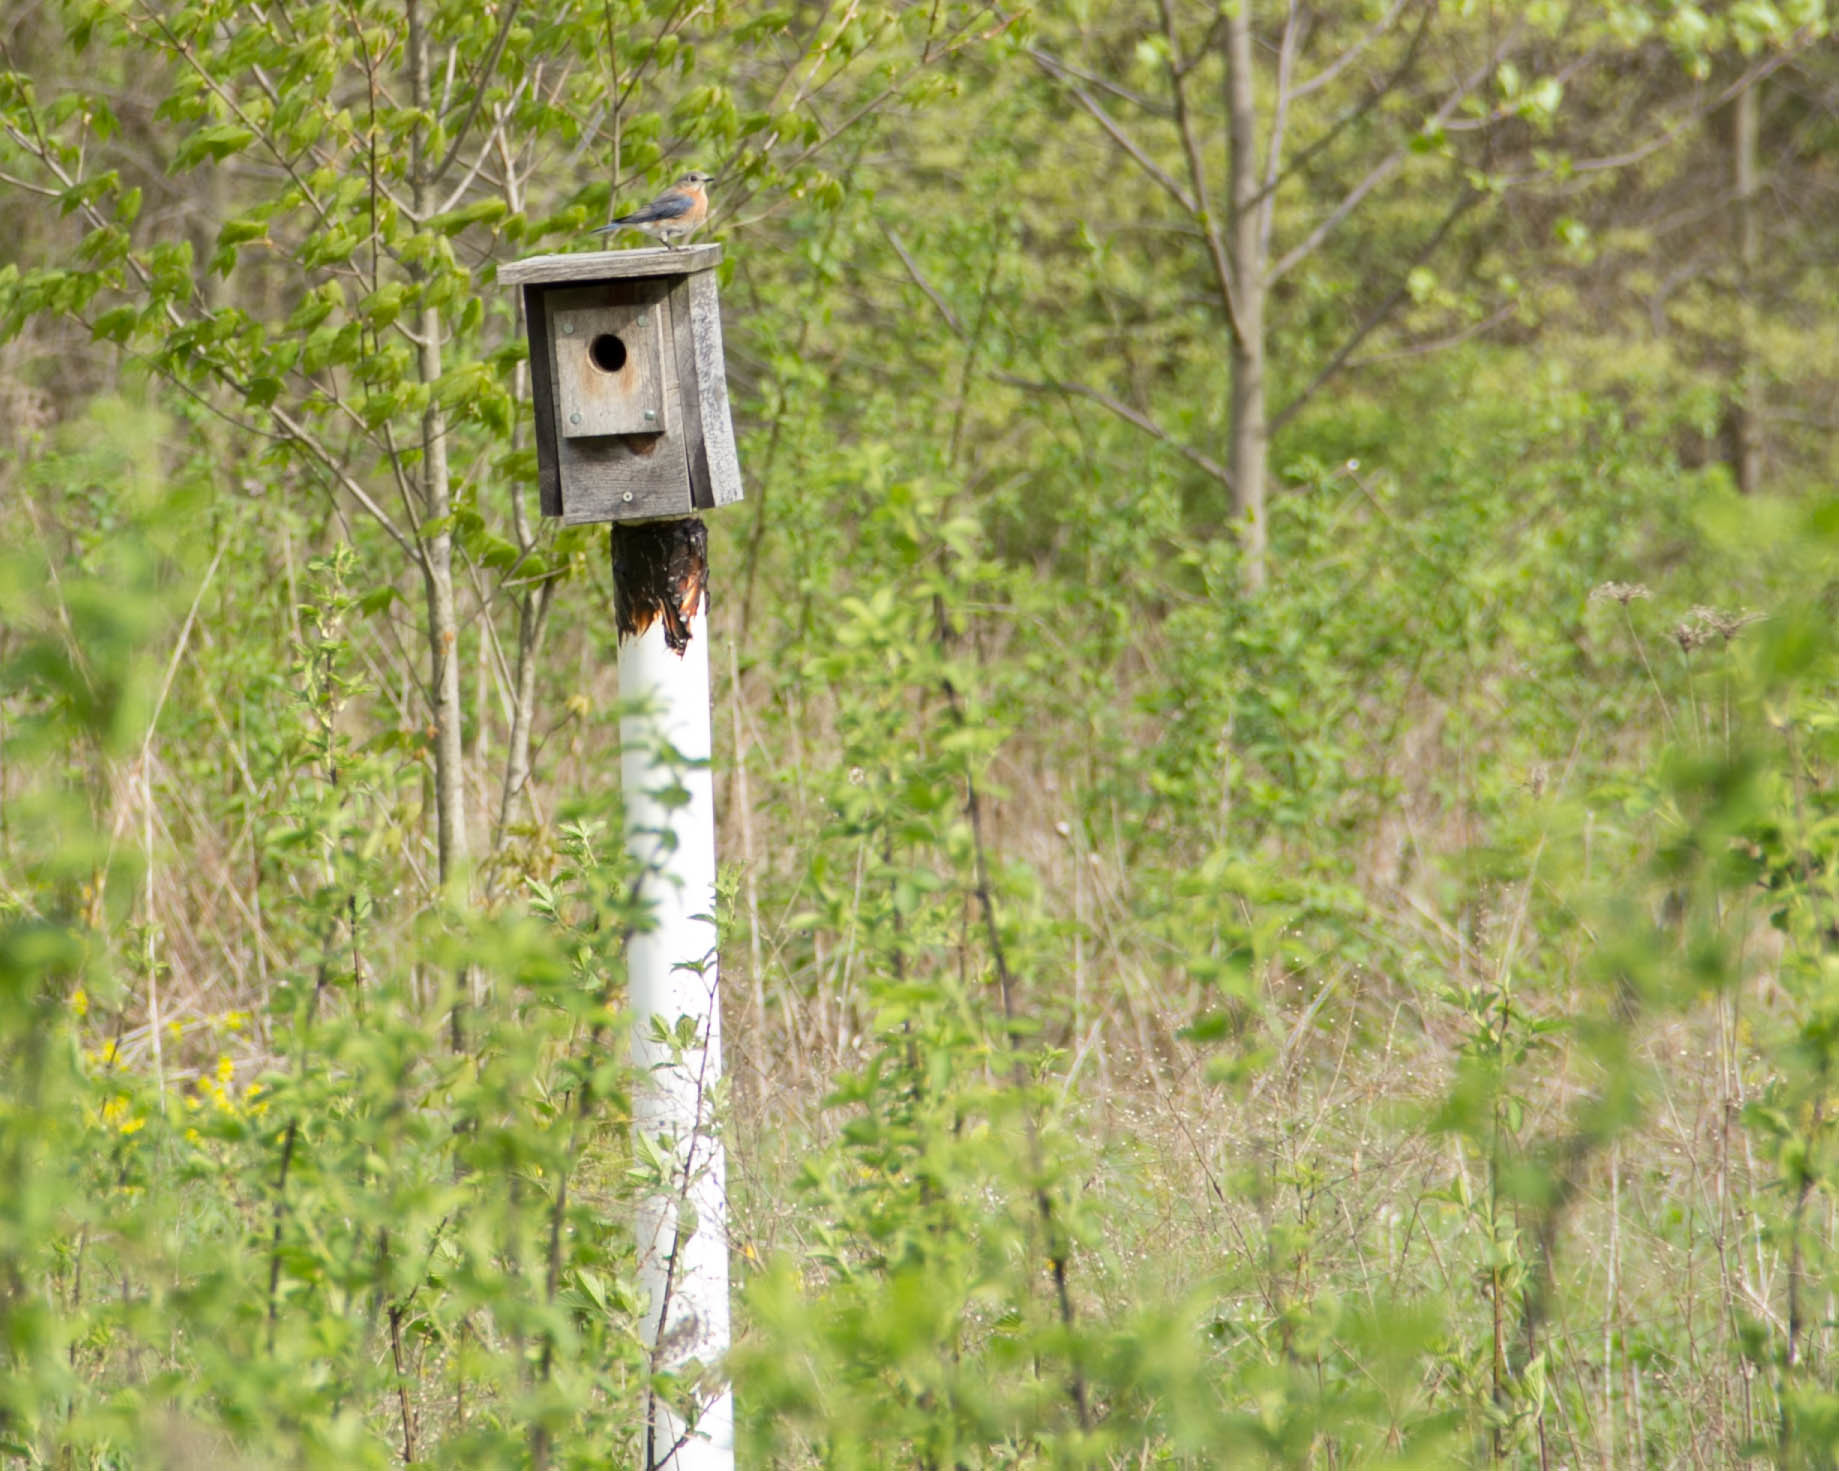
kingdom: Animalia
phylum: Chordata
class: Aves
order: Passeriformes
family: Turdidae
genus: Sialia
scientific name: Sialia sialis
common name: Eastern bluebird
